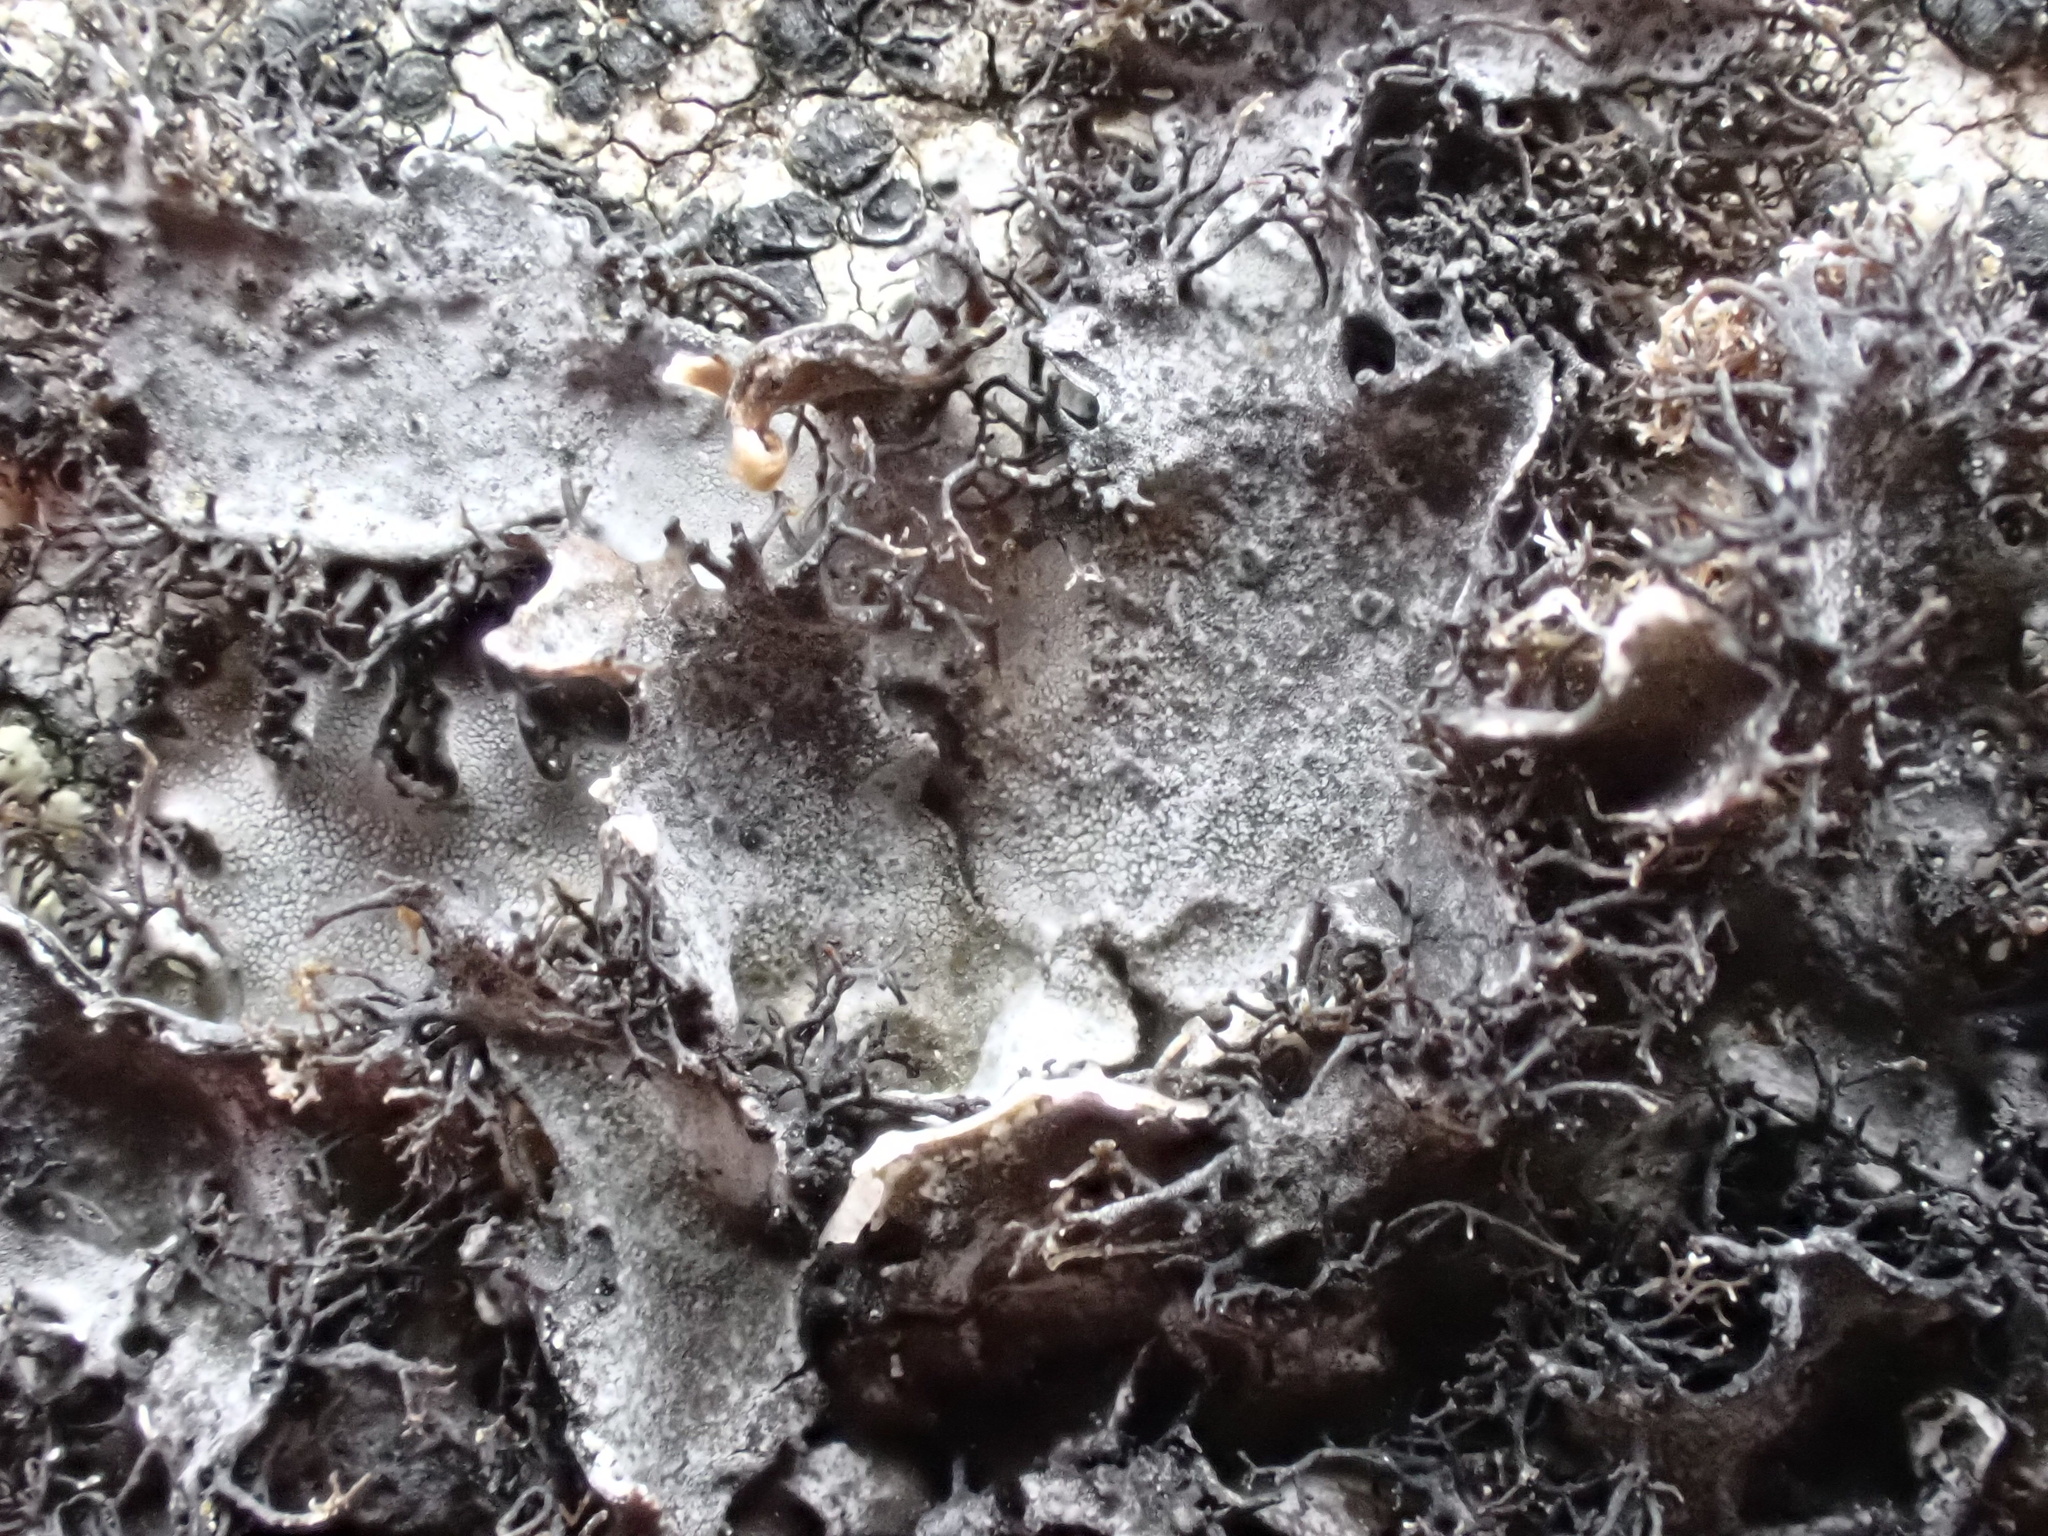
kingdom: Fungi
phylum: Ascomycota
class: Lecanoromycetes
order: Umbilicariales
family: Umbilicariaceae
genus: Umbilicaria
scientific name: Umbilicaria cylindrica
